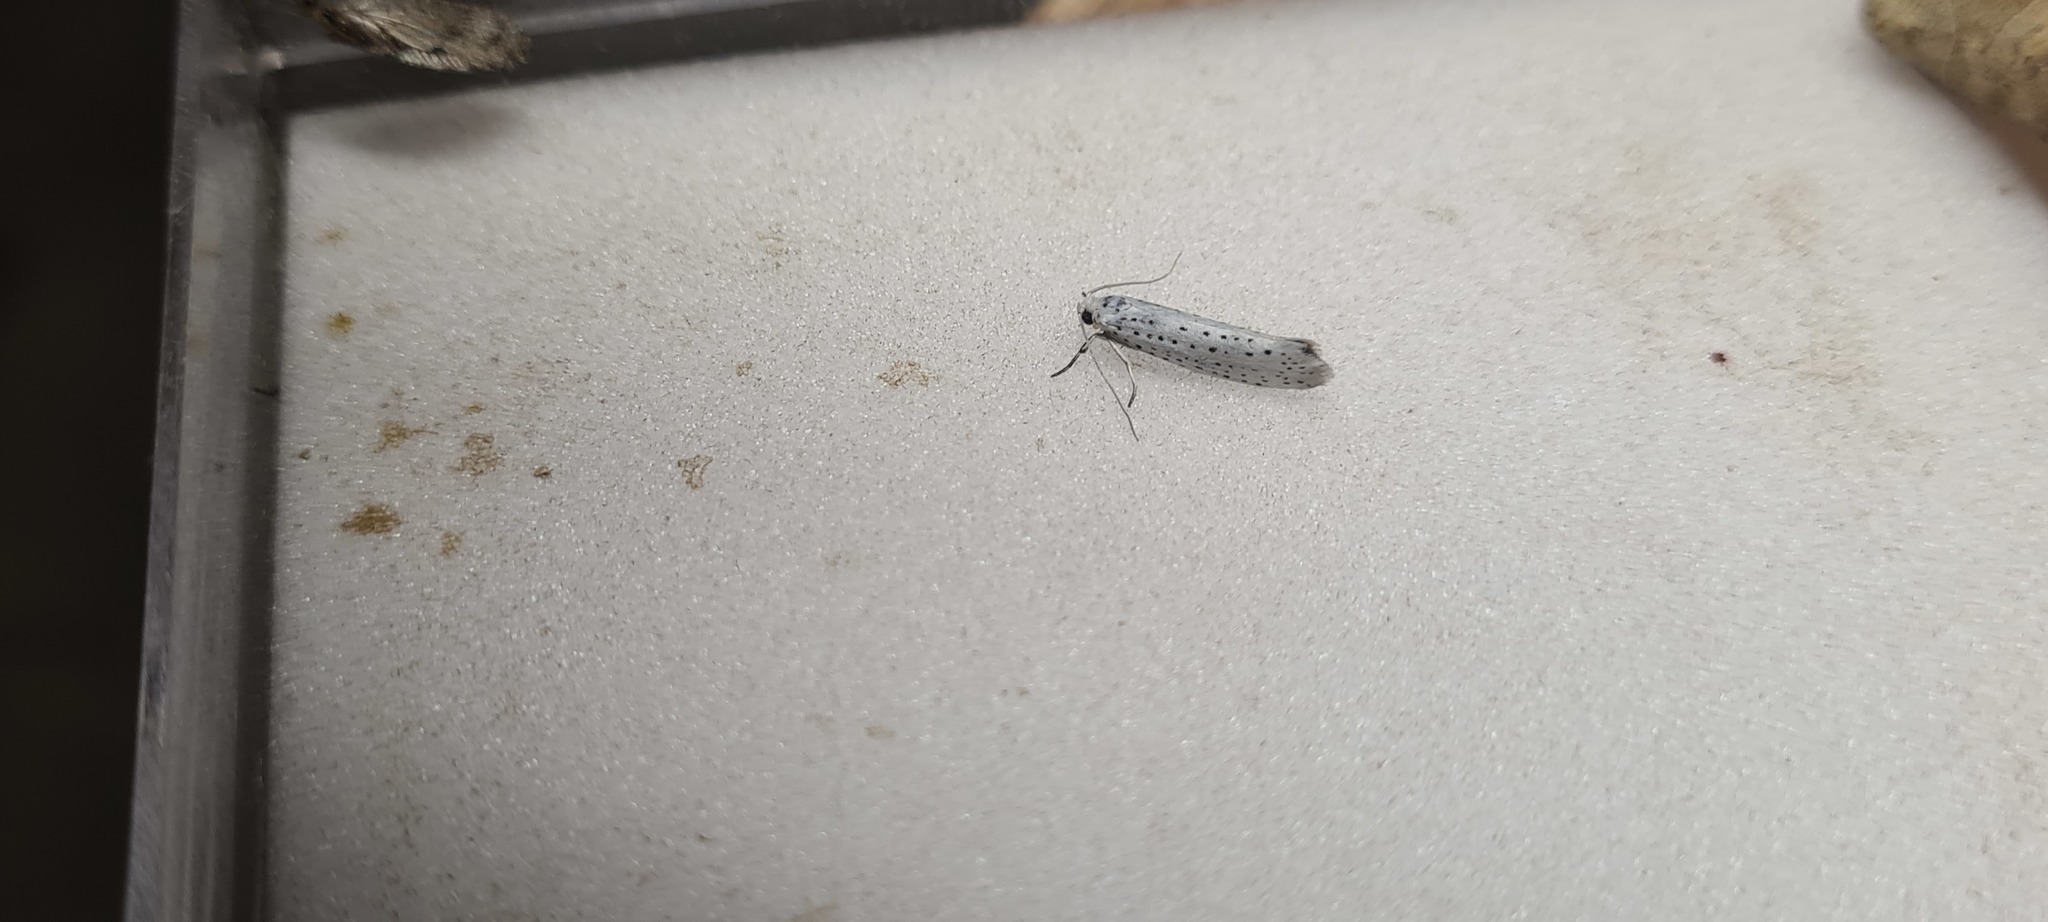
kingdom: Animalia
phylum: Arthropoda
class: Insecta
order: Lepidoptera
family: Yponomeutidae
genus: Yponomeuta
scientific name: Yponomeuta evonymella
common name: Bird-cherry ermine
